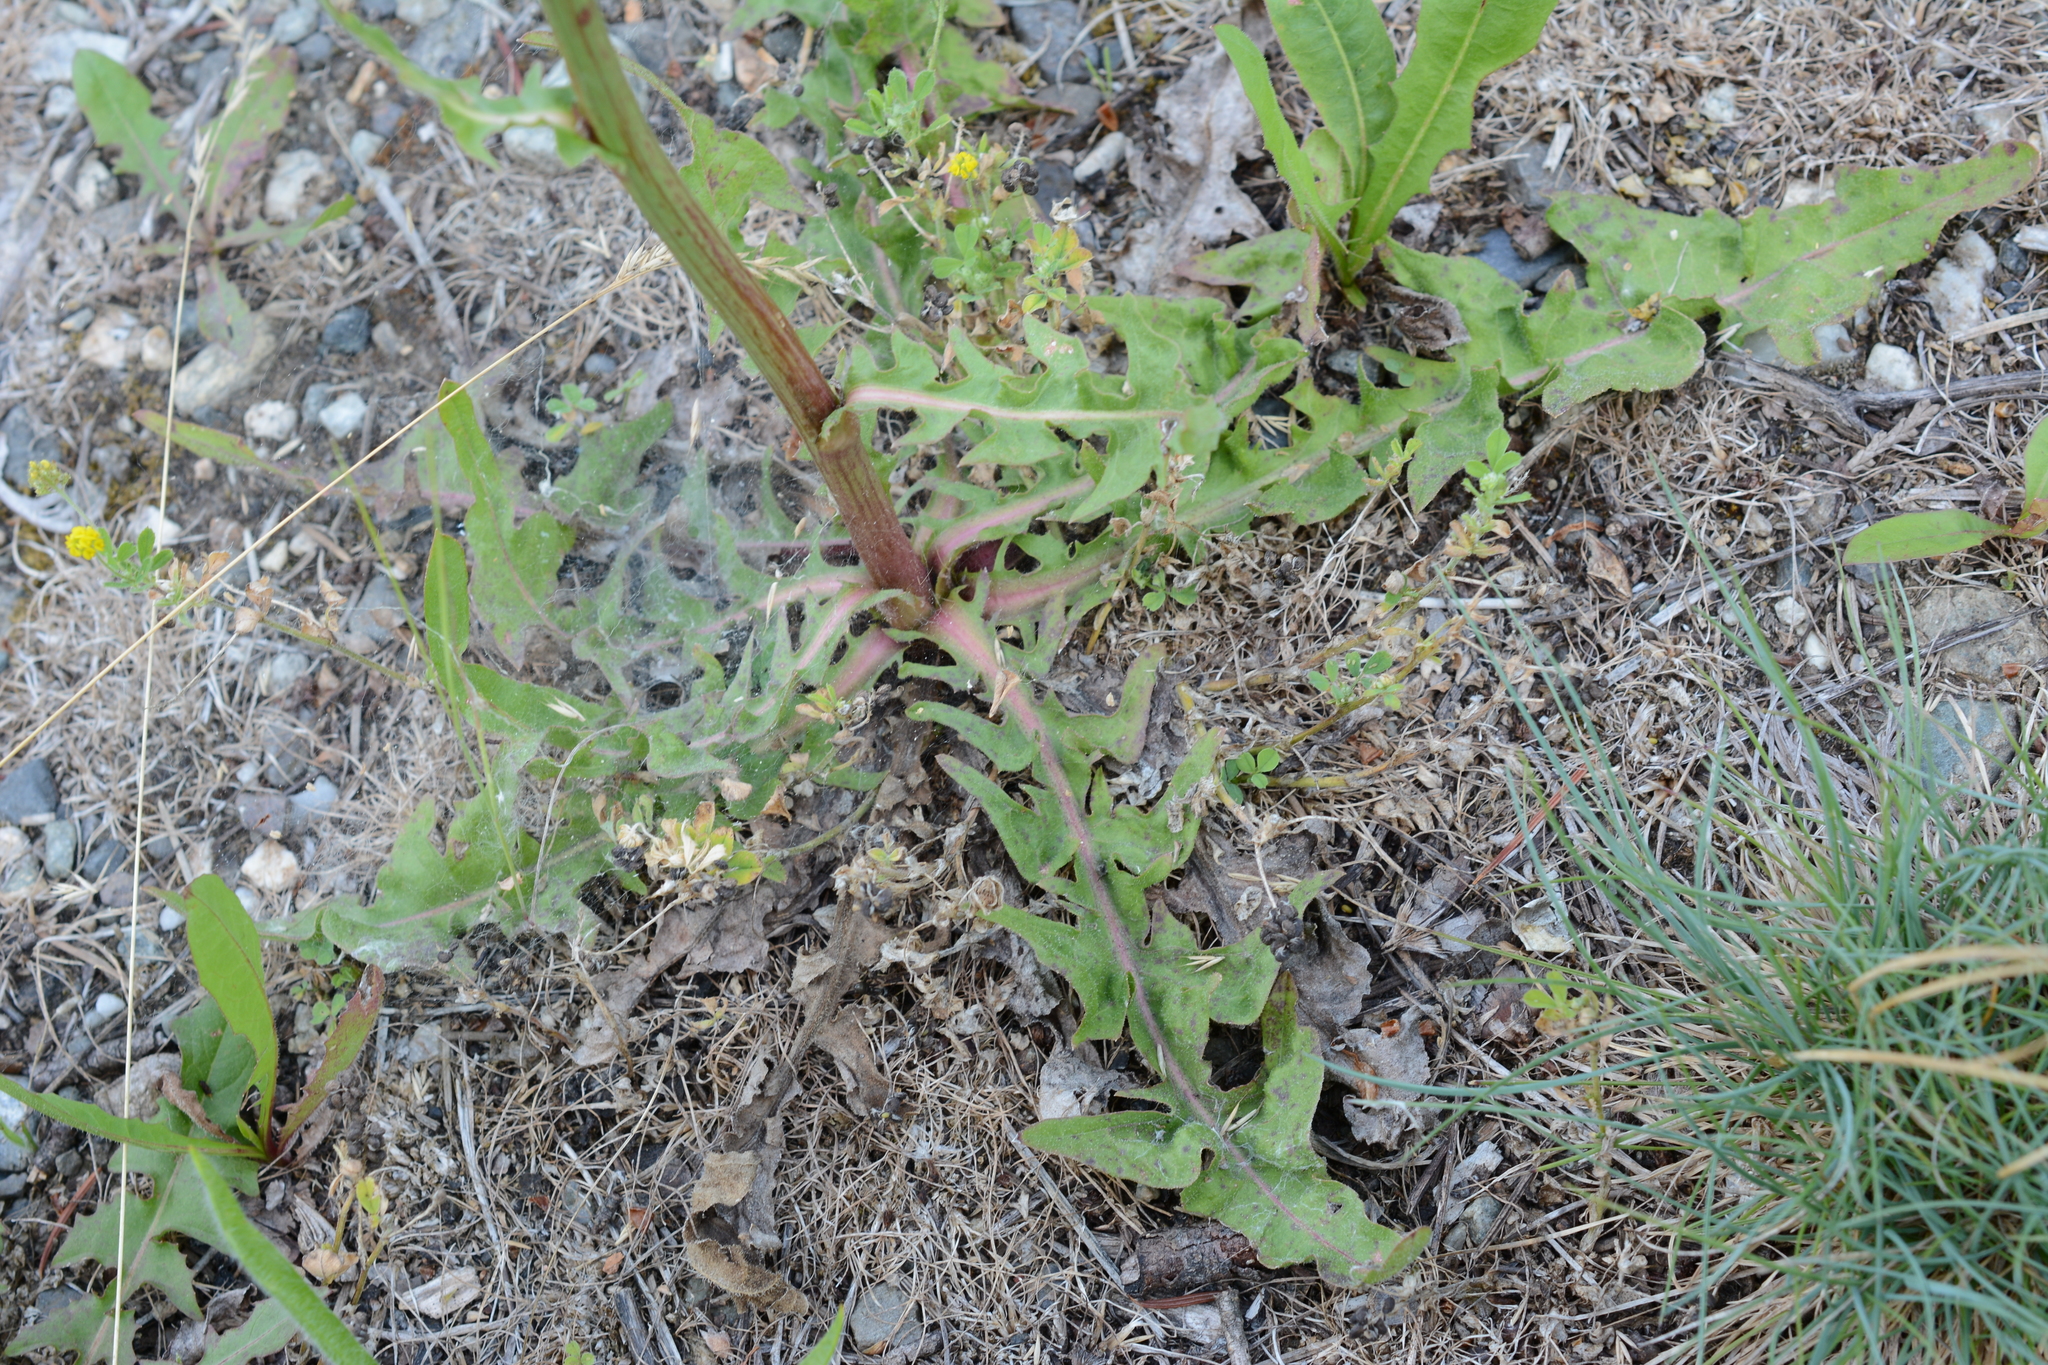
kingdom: Plantae
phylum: Tracheophyta
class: Magnoliopsida
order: Asterales
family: Asteraceae
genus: Cichorium
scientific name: Cichorium intybus
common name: Chicory
